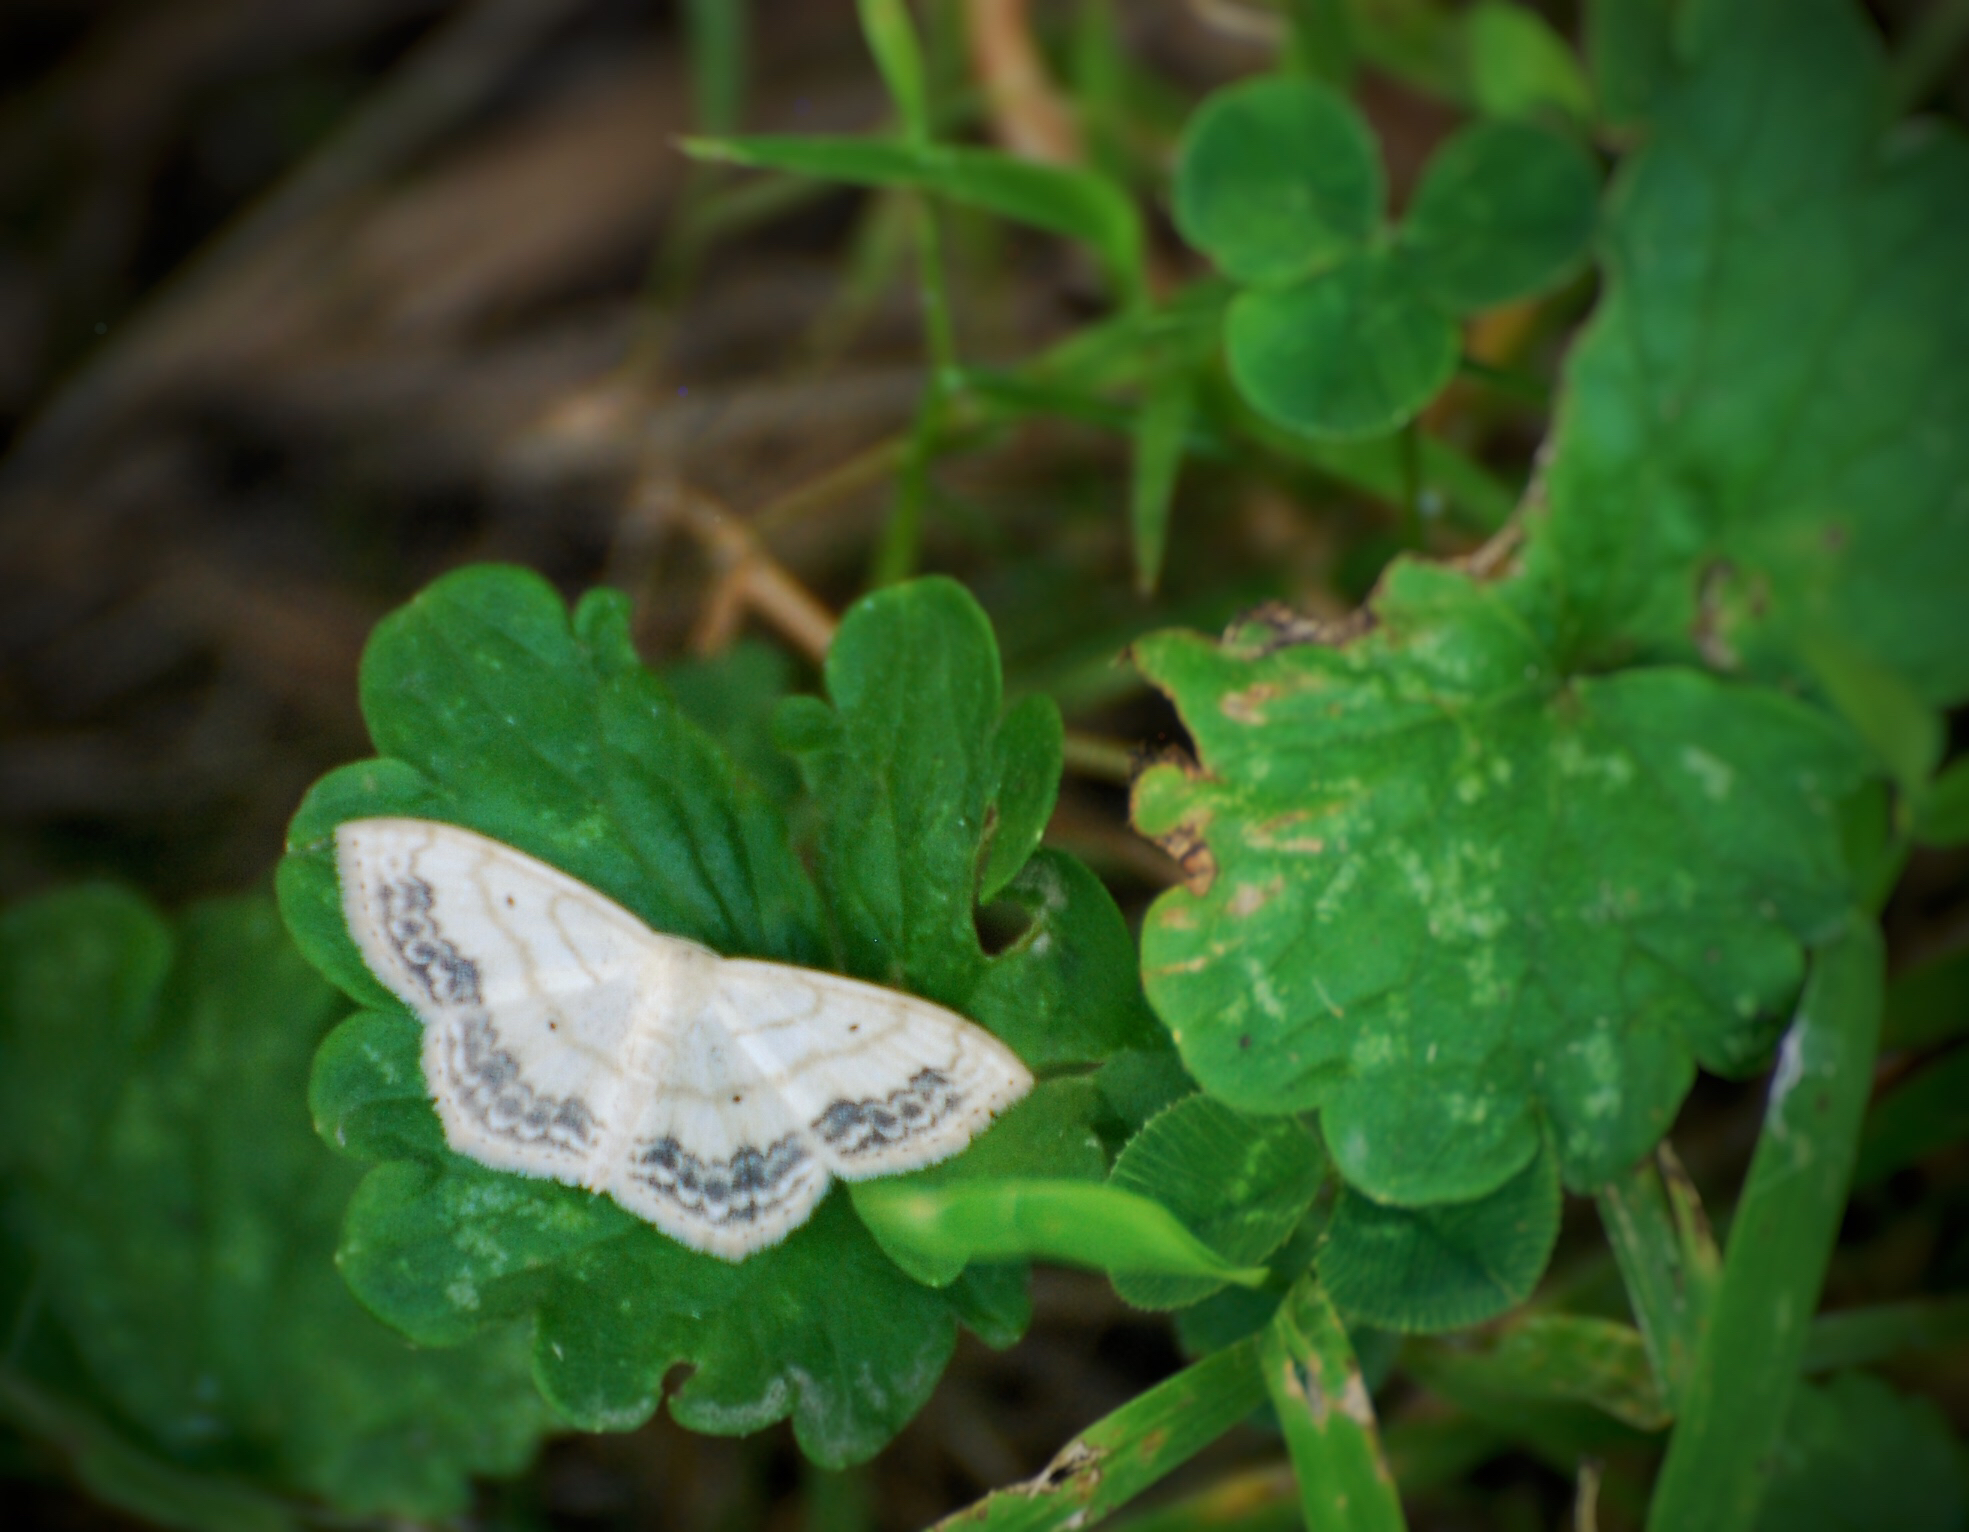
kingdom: Animalia
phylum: Arthropoda
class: Insecta
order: Lepidoptera
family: Geometridae
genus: Scopula
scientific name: Scopula limboundata
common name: Large lace border
